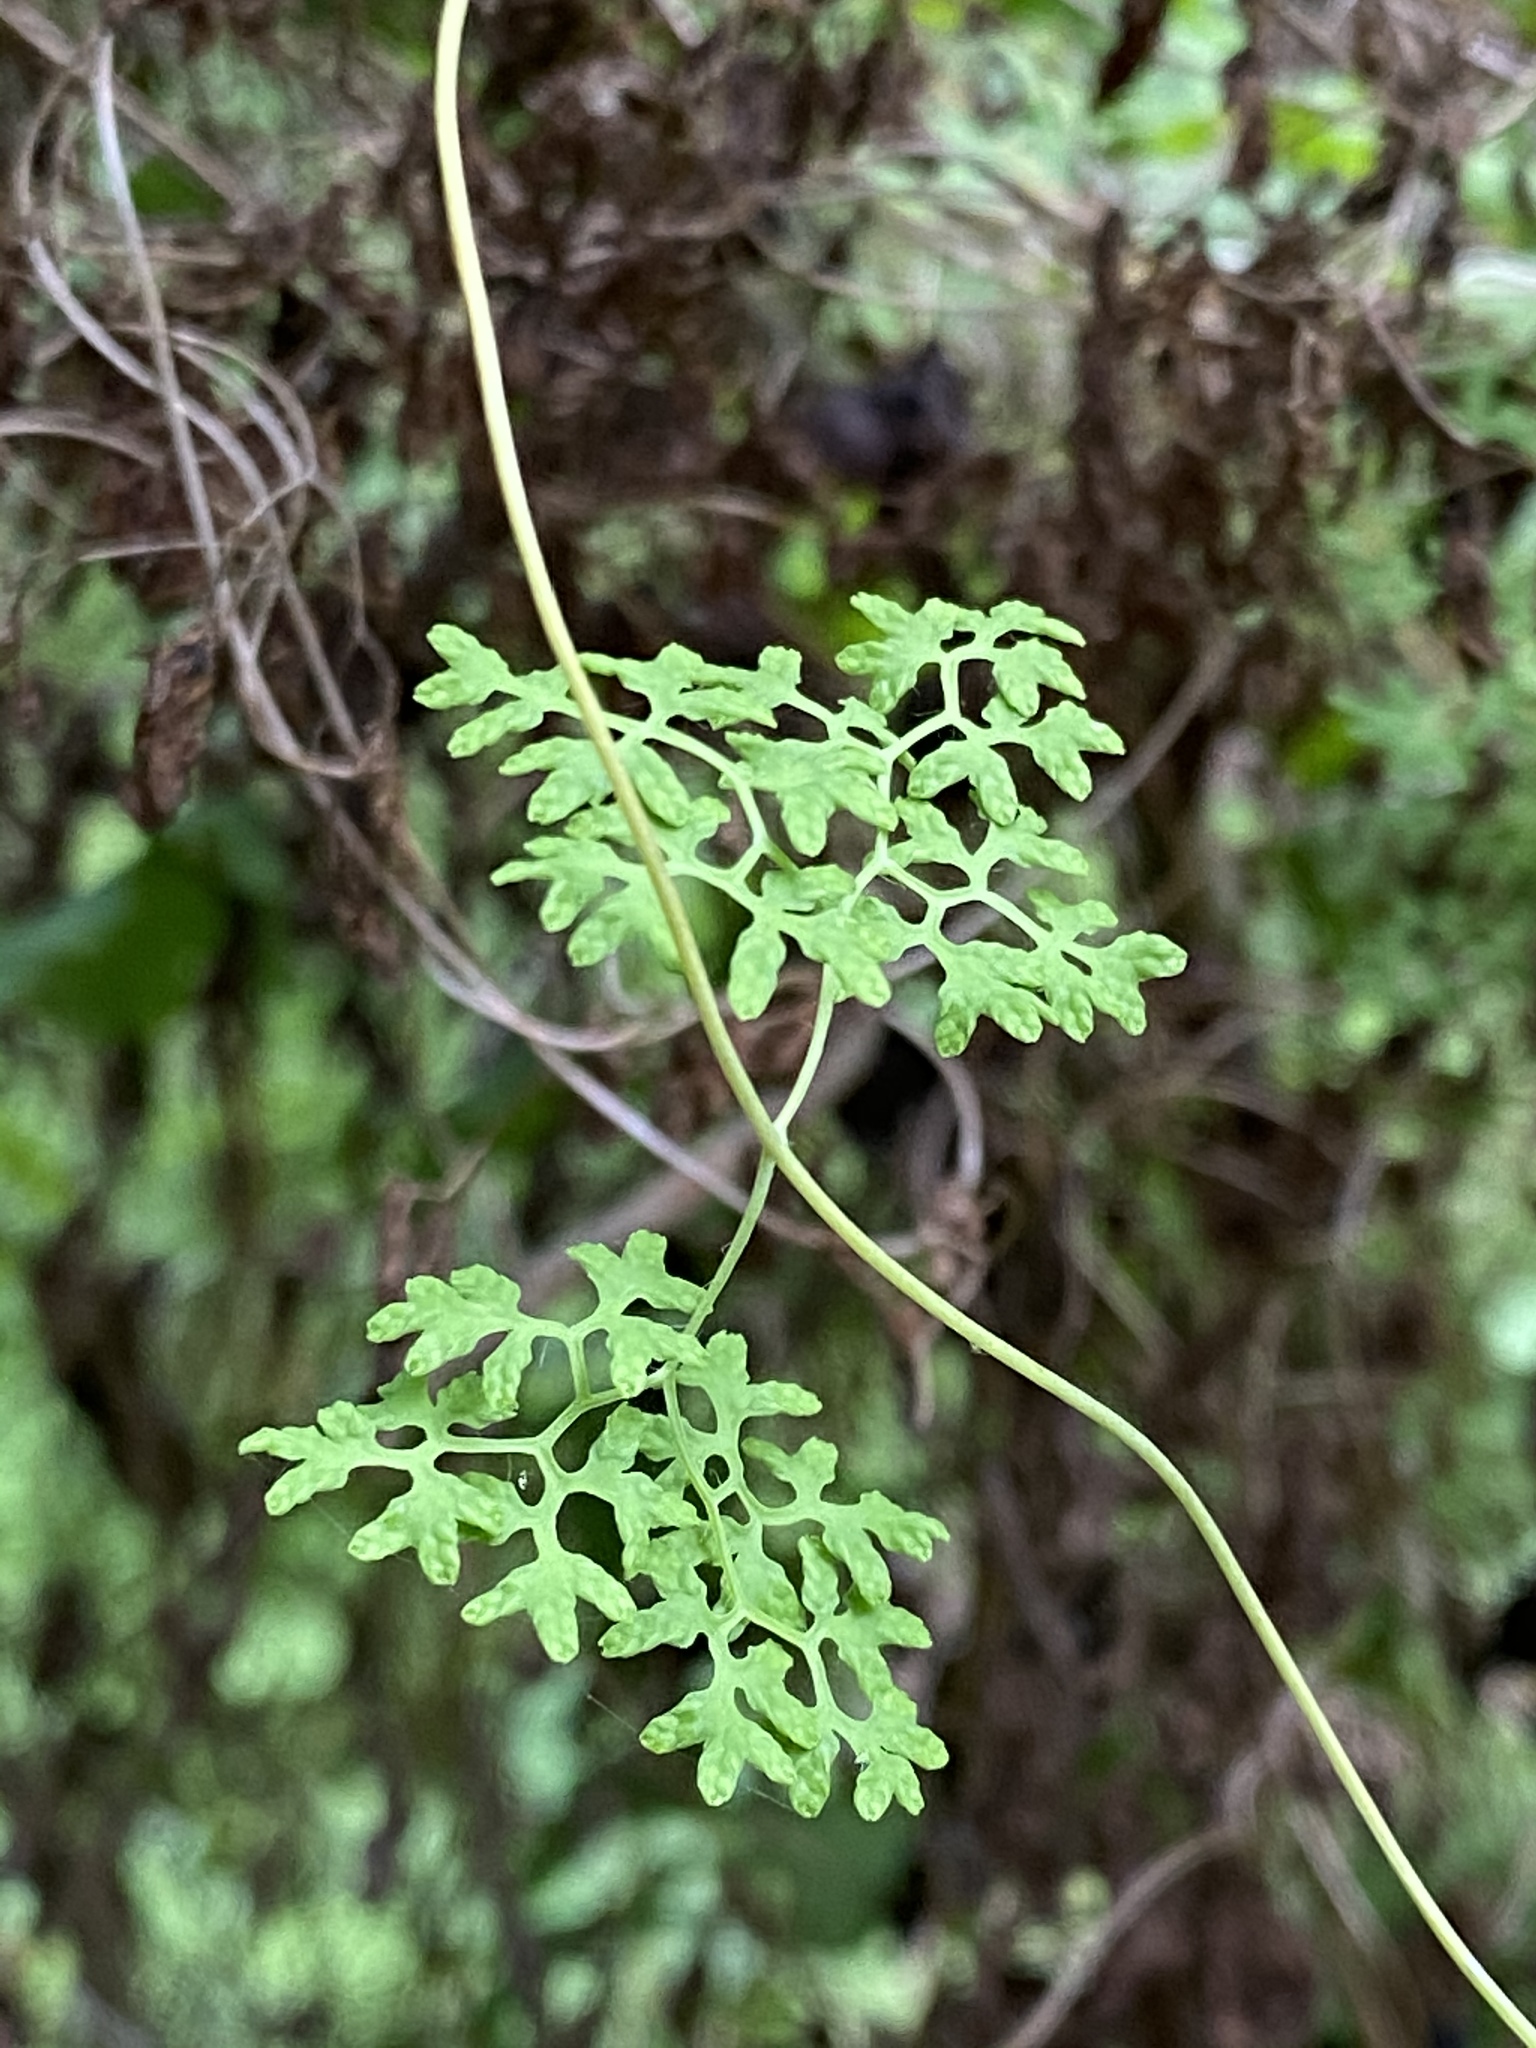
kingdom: Plantae
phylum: Tracheophyta
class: Polypodiopsida
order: Schizaeales
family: Lygodiaceae
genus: Lygodium
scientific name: Lygodium palmatum
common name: American climbing fern
